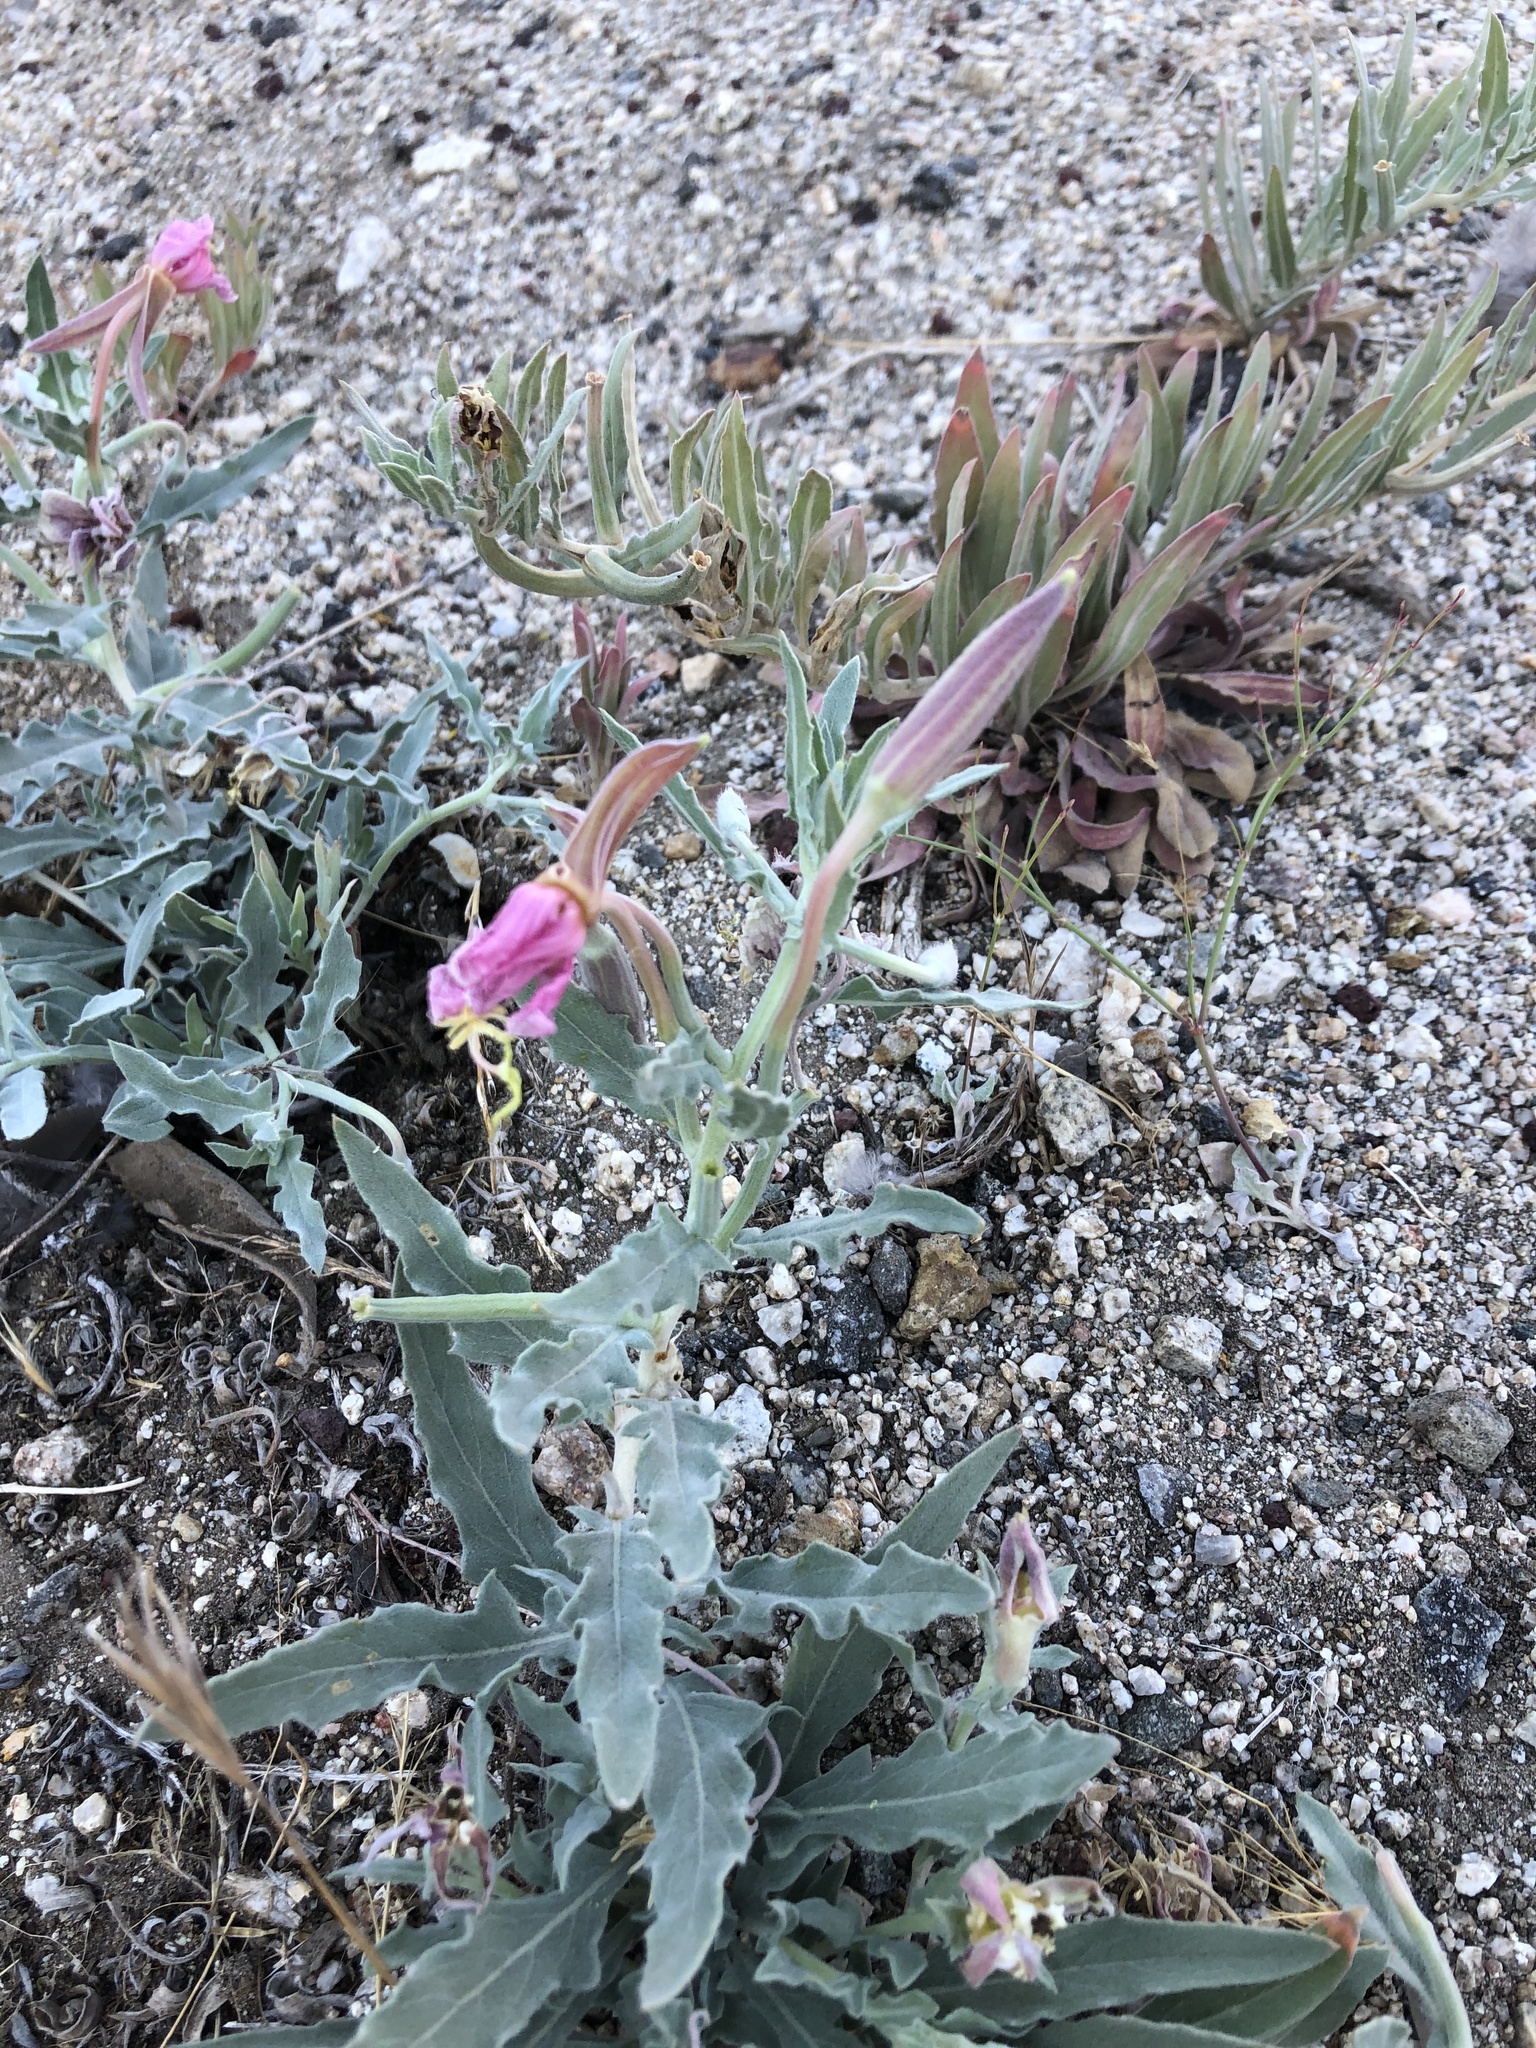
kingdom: Plantae
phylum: Tracheophyta
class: Magnoliopsida
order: Myrtales
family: Onagraceae
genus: Oenothera
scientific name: Oenothera californica
